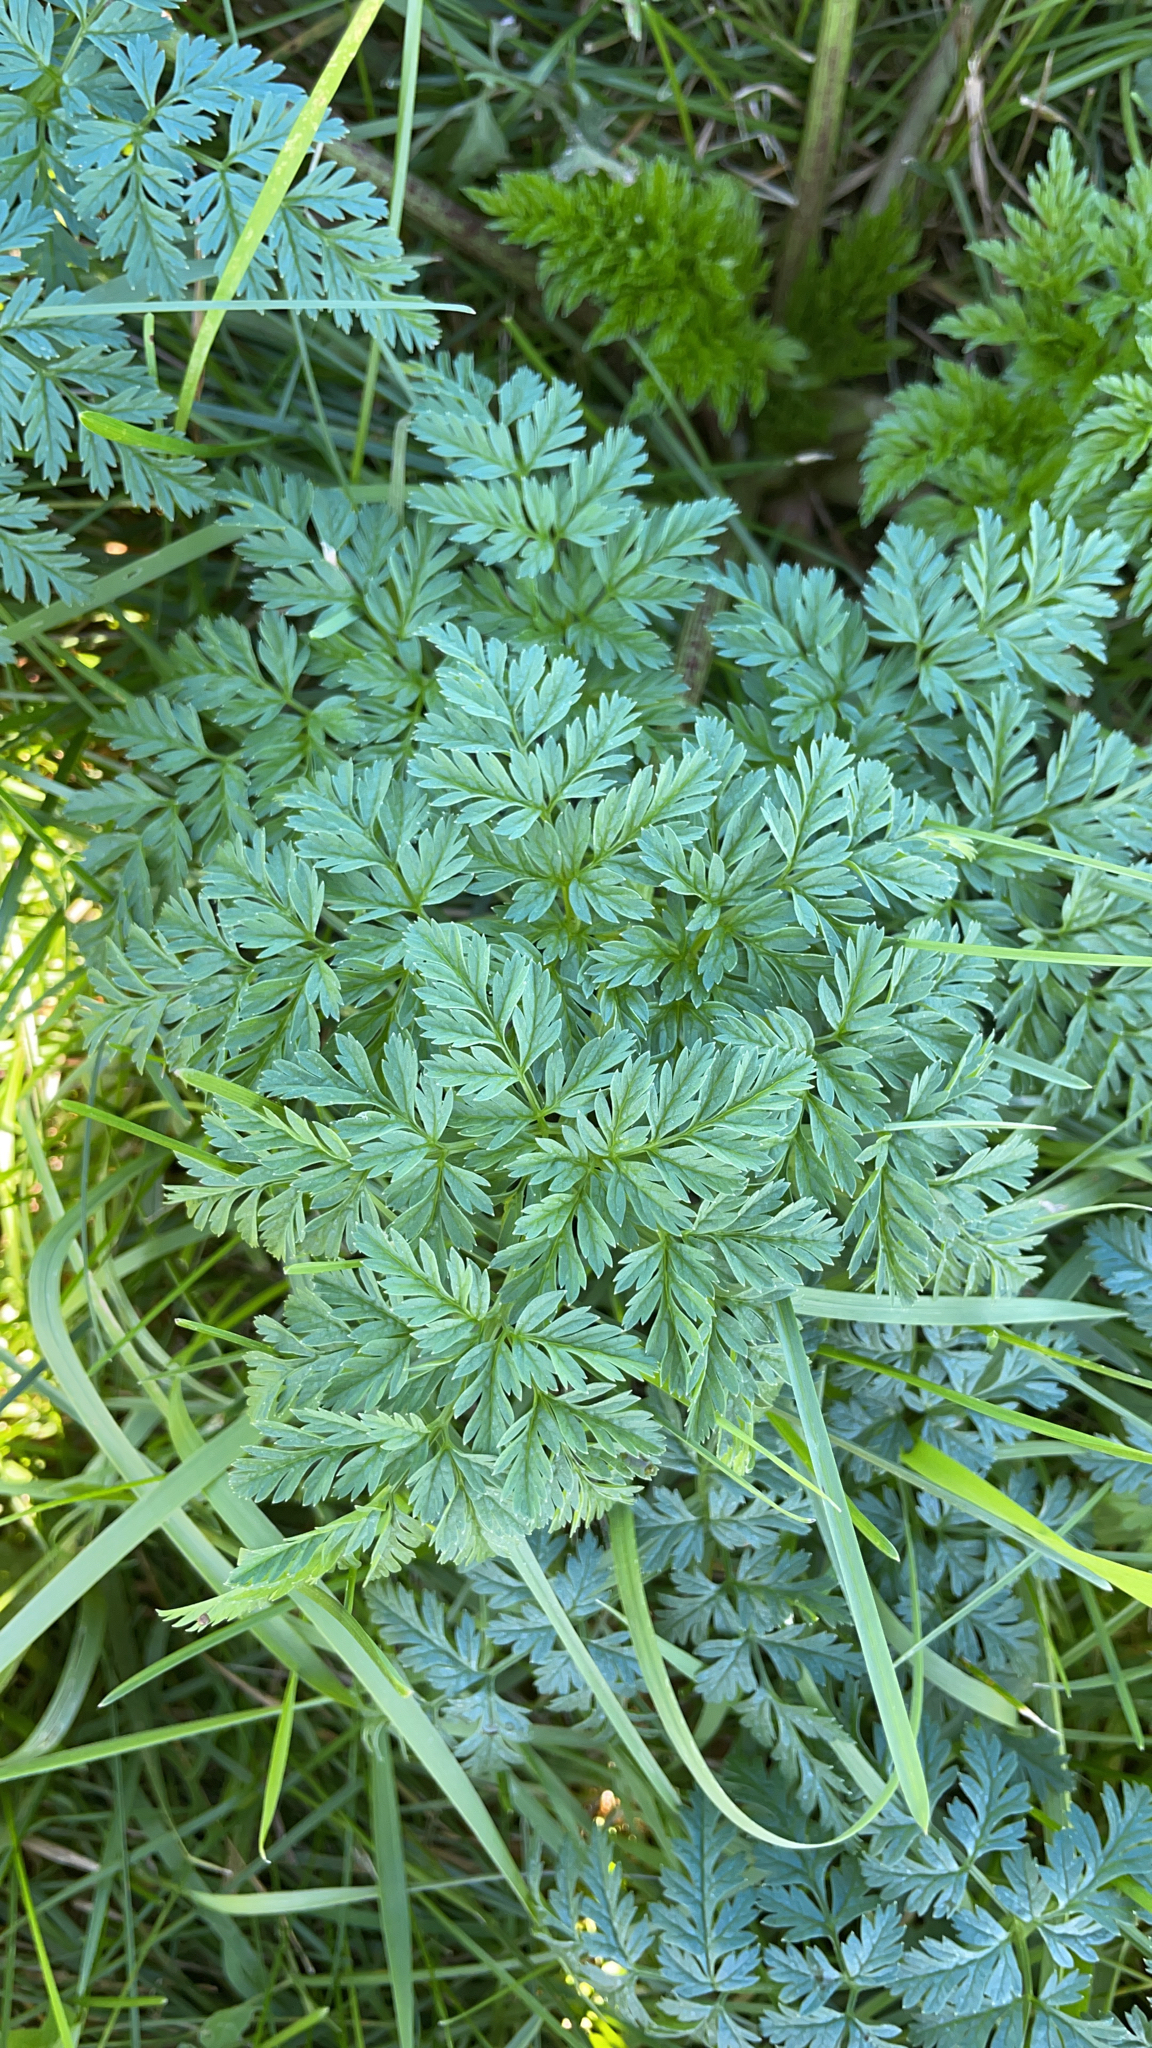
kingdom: Plantae
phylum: Tracheophyta
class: Magnoliopsida
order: Apiales
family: Apiaceae
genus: Conium
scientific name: Conium maculatum
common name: Hemlock
